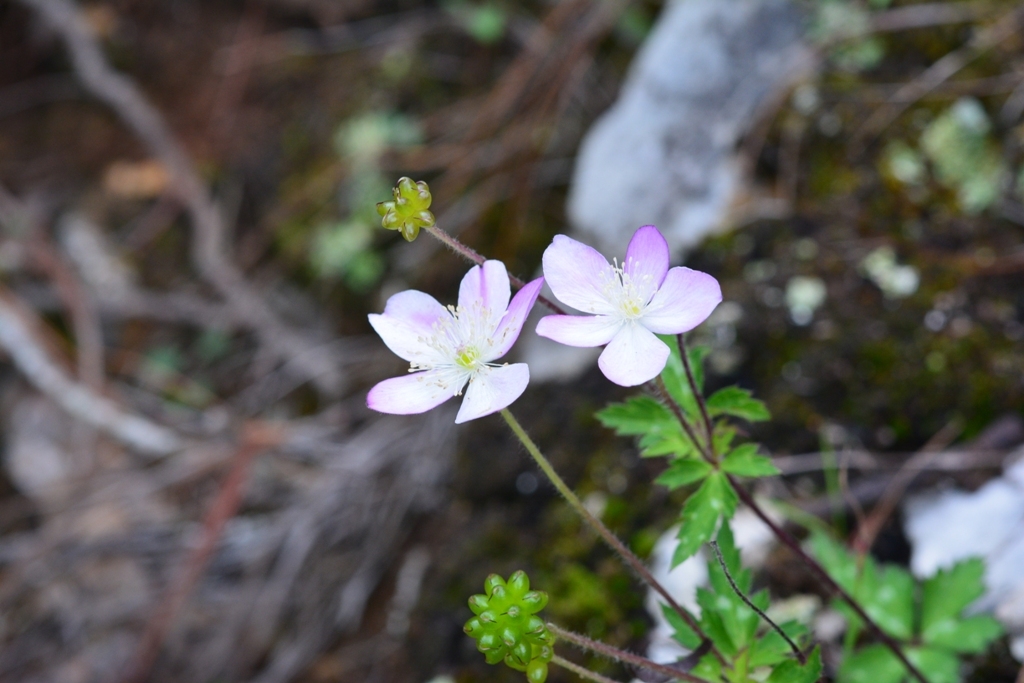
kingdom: Plantae
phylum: Tracheophyta
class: Magnoliopsida
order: Ranunculales
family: Ranunculaceae
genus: Knowltonia
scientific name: Knowltonia mexicana
